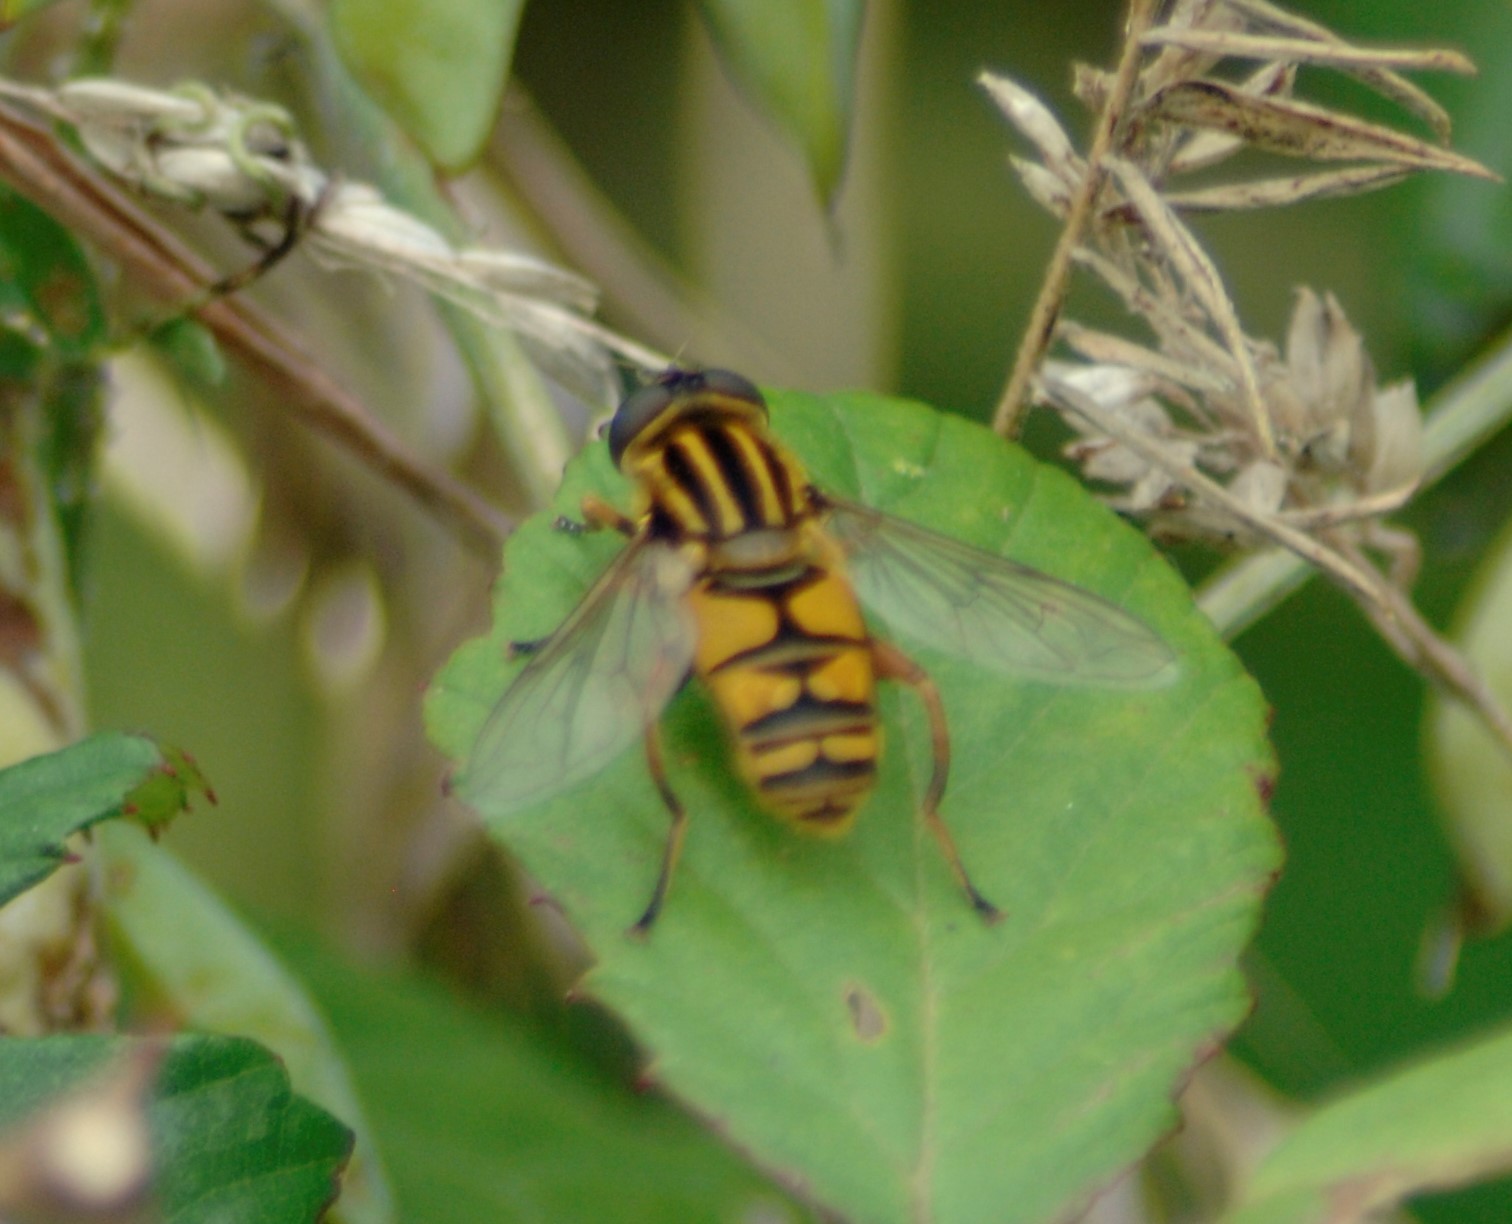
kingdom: Animalia
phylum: Arthropoda
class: Insecta
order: Diptera
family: Syrphidae
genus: Helophilus
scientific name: Helophilus pendulus
